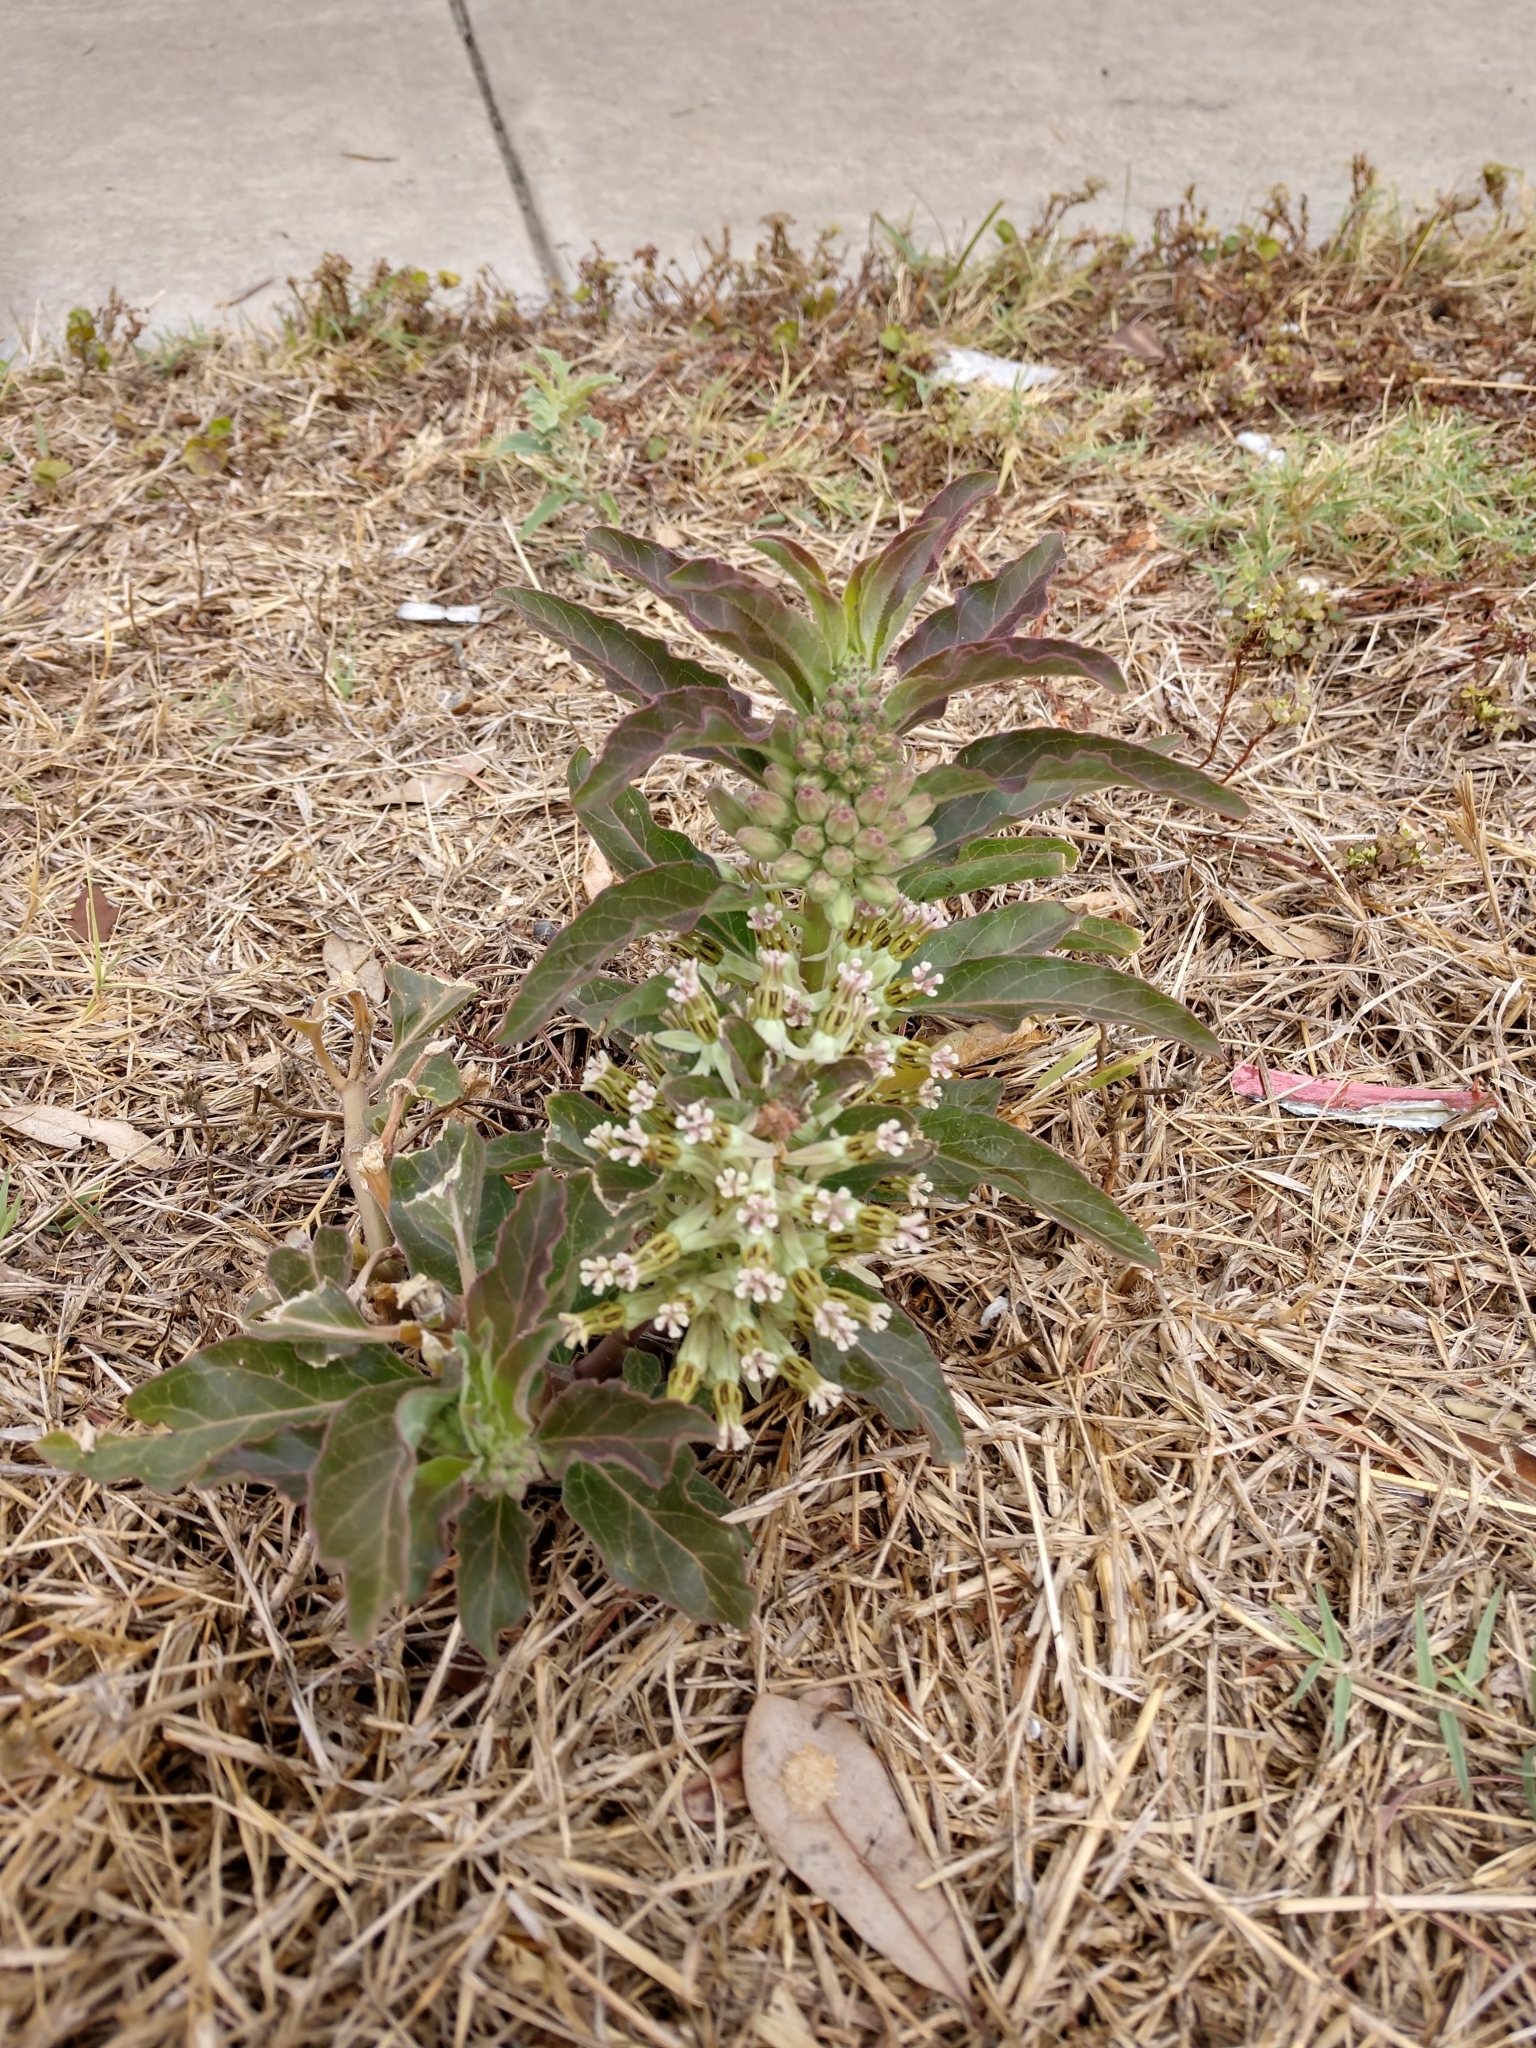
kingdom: Plantae
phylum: Tracheophyta
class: Magnoliopsida
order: Gentianales
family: Apocynaceae
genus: Asclepias
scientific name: Asclepias oenotheroides
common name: Zizotes milkweed
